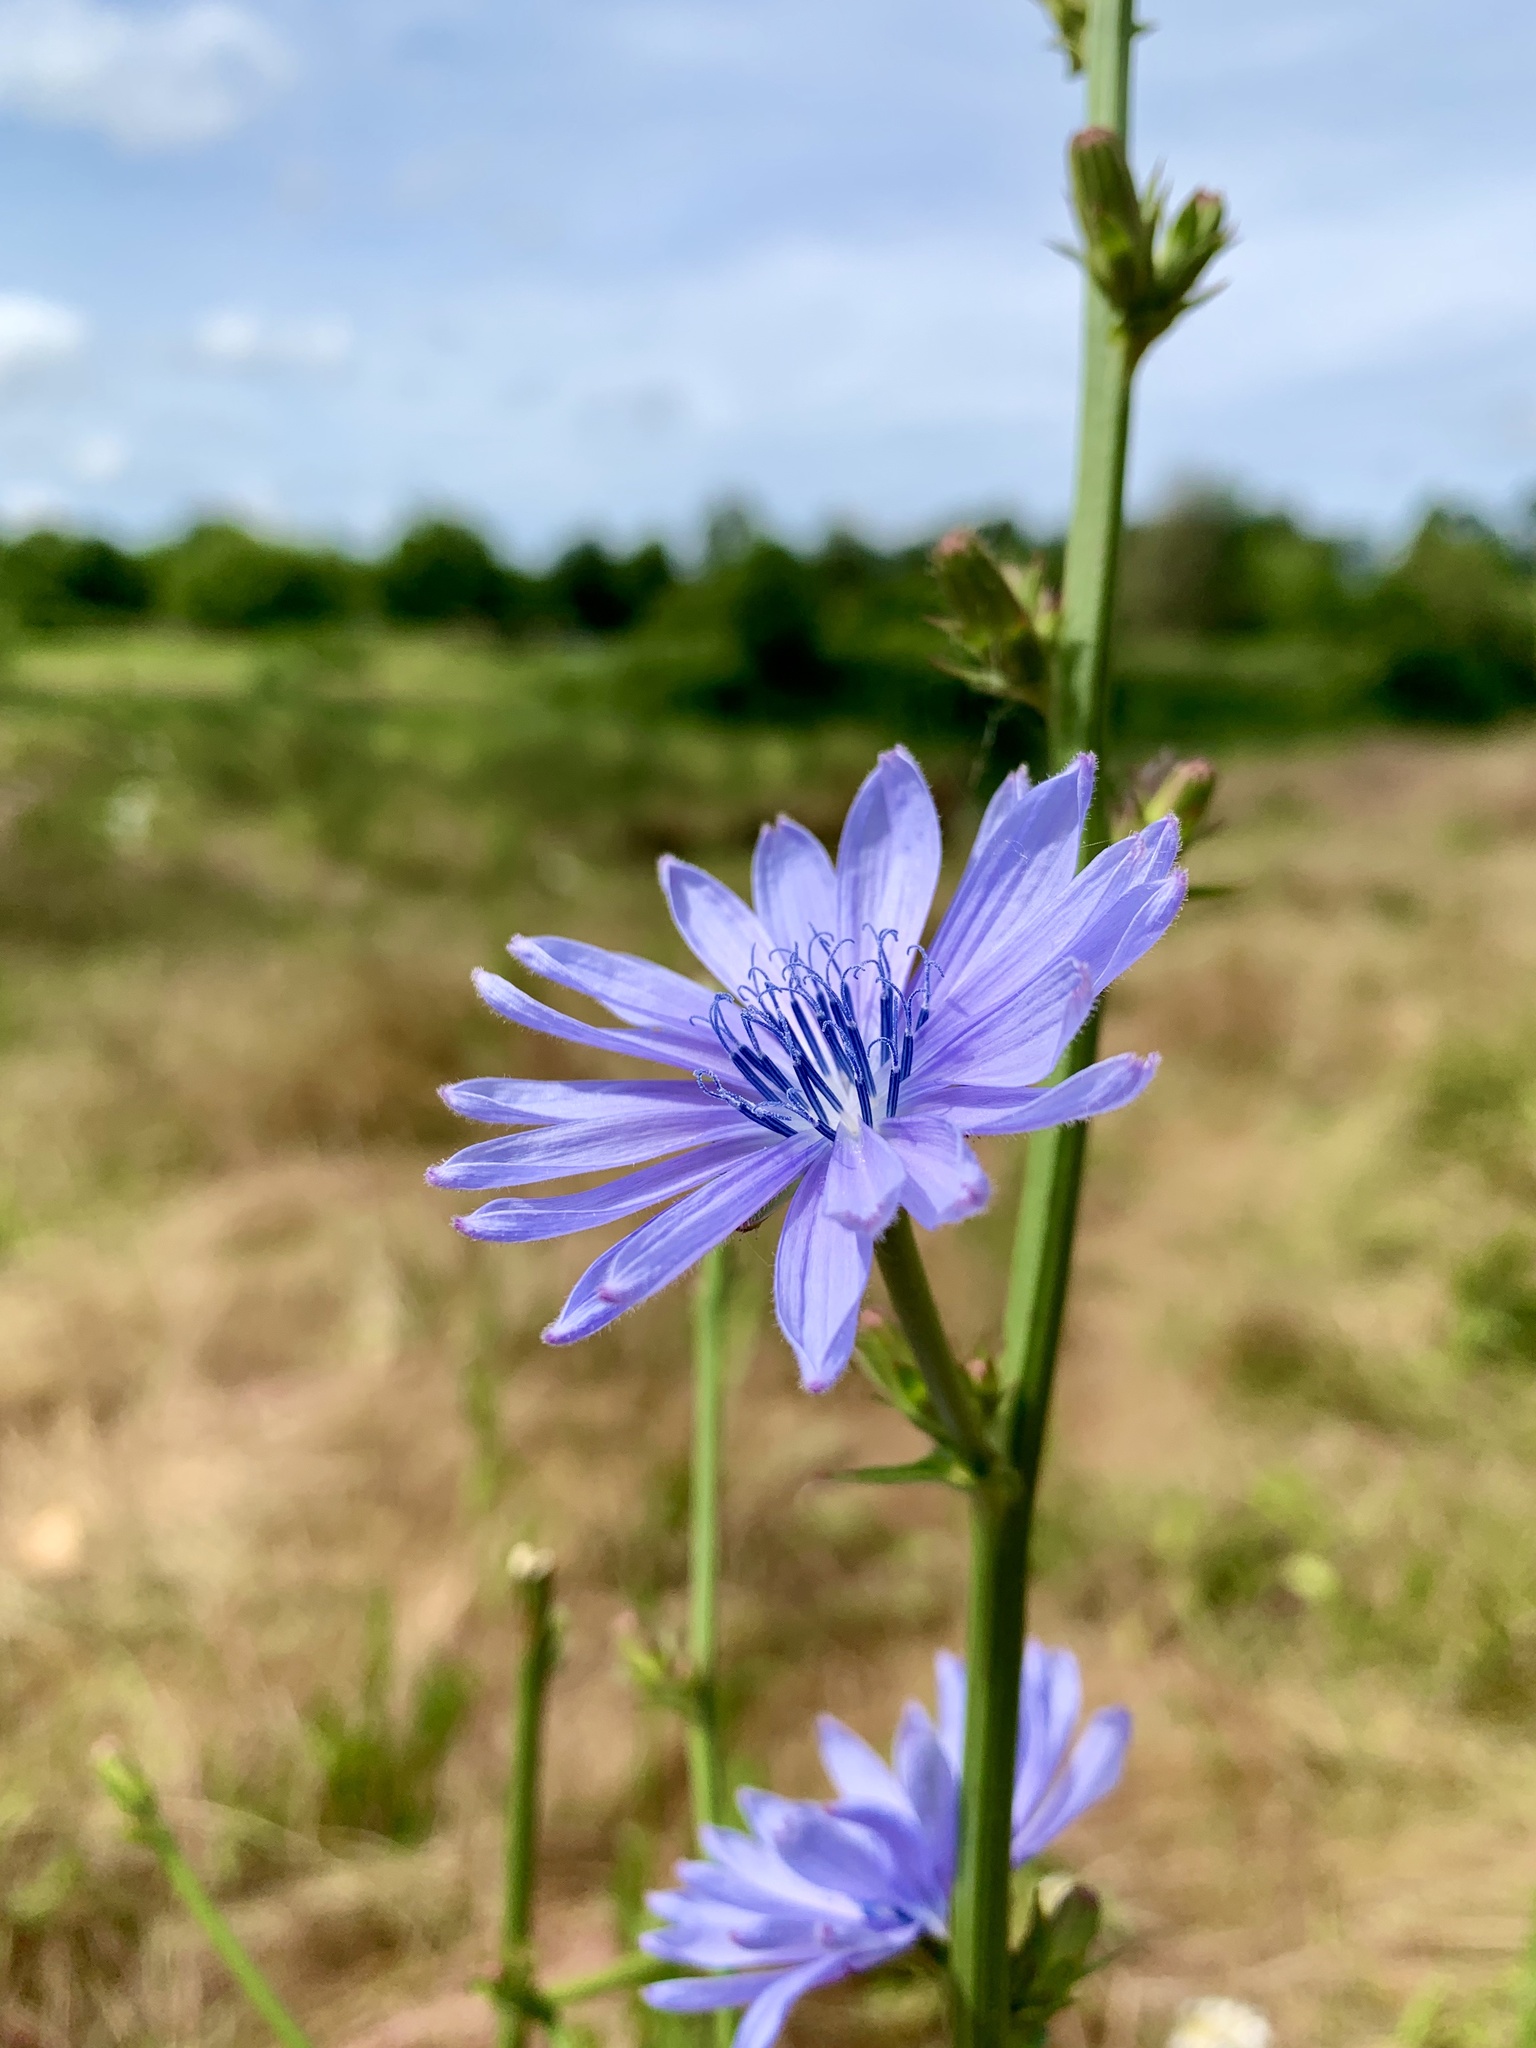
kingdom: Plantae
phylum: Tracheophyta
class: Magnoliopsida
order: Asterales
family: Asteraceae
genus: Cichorium
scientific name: Cichorium intybus
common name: Chicory
